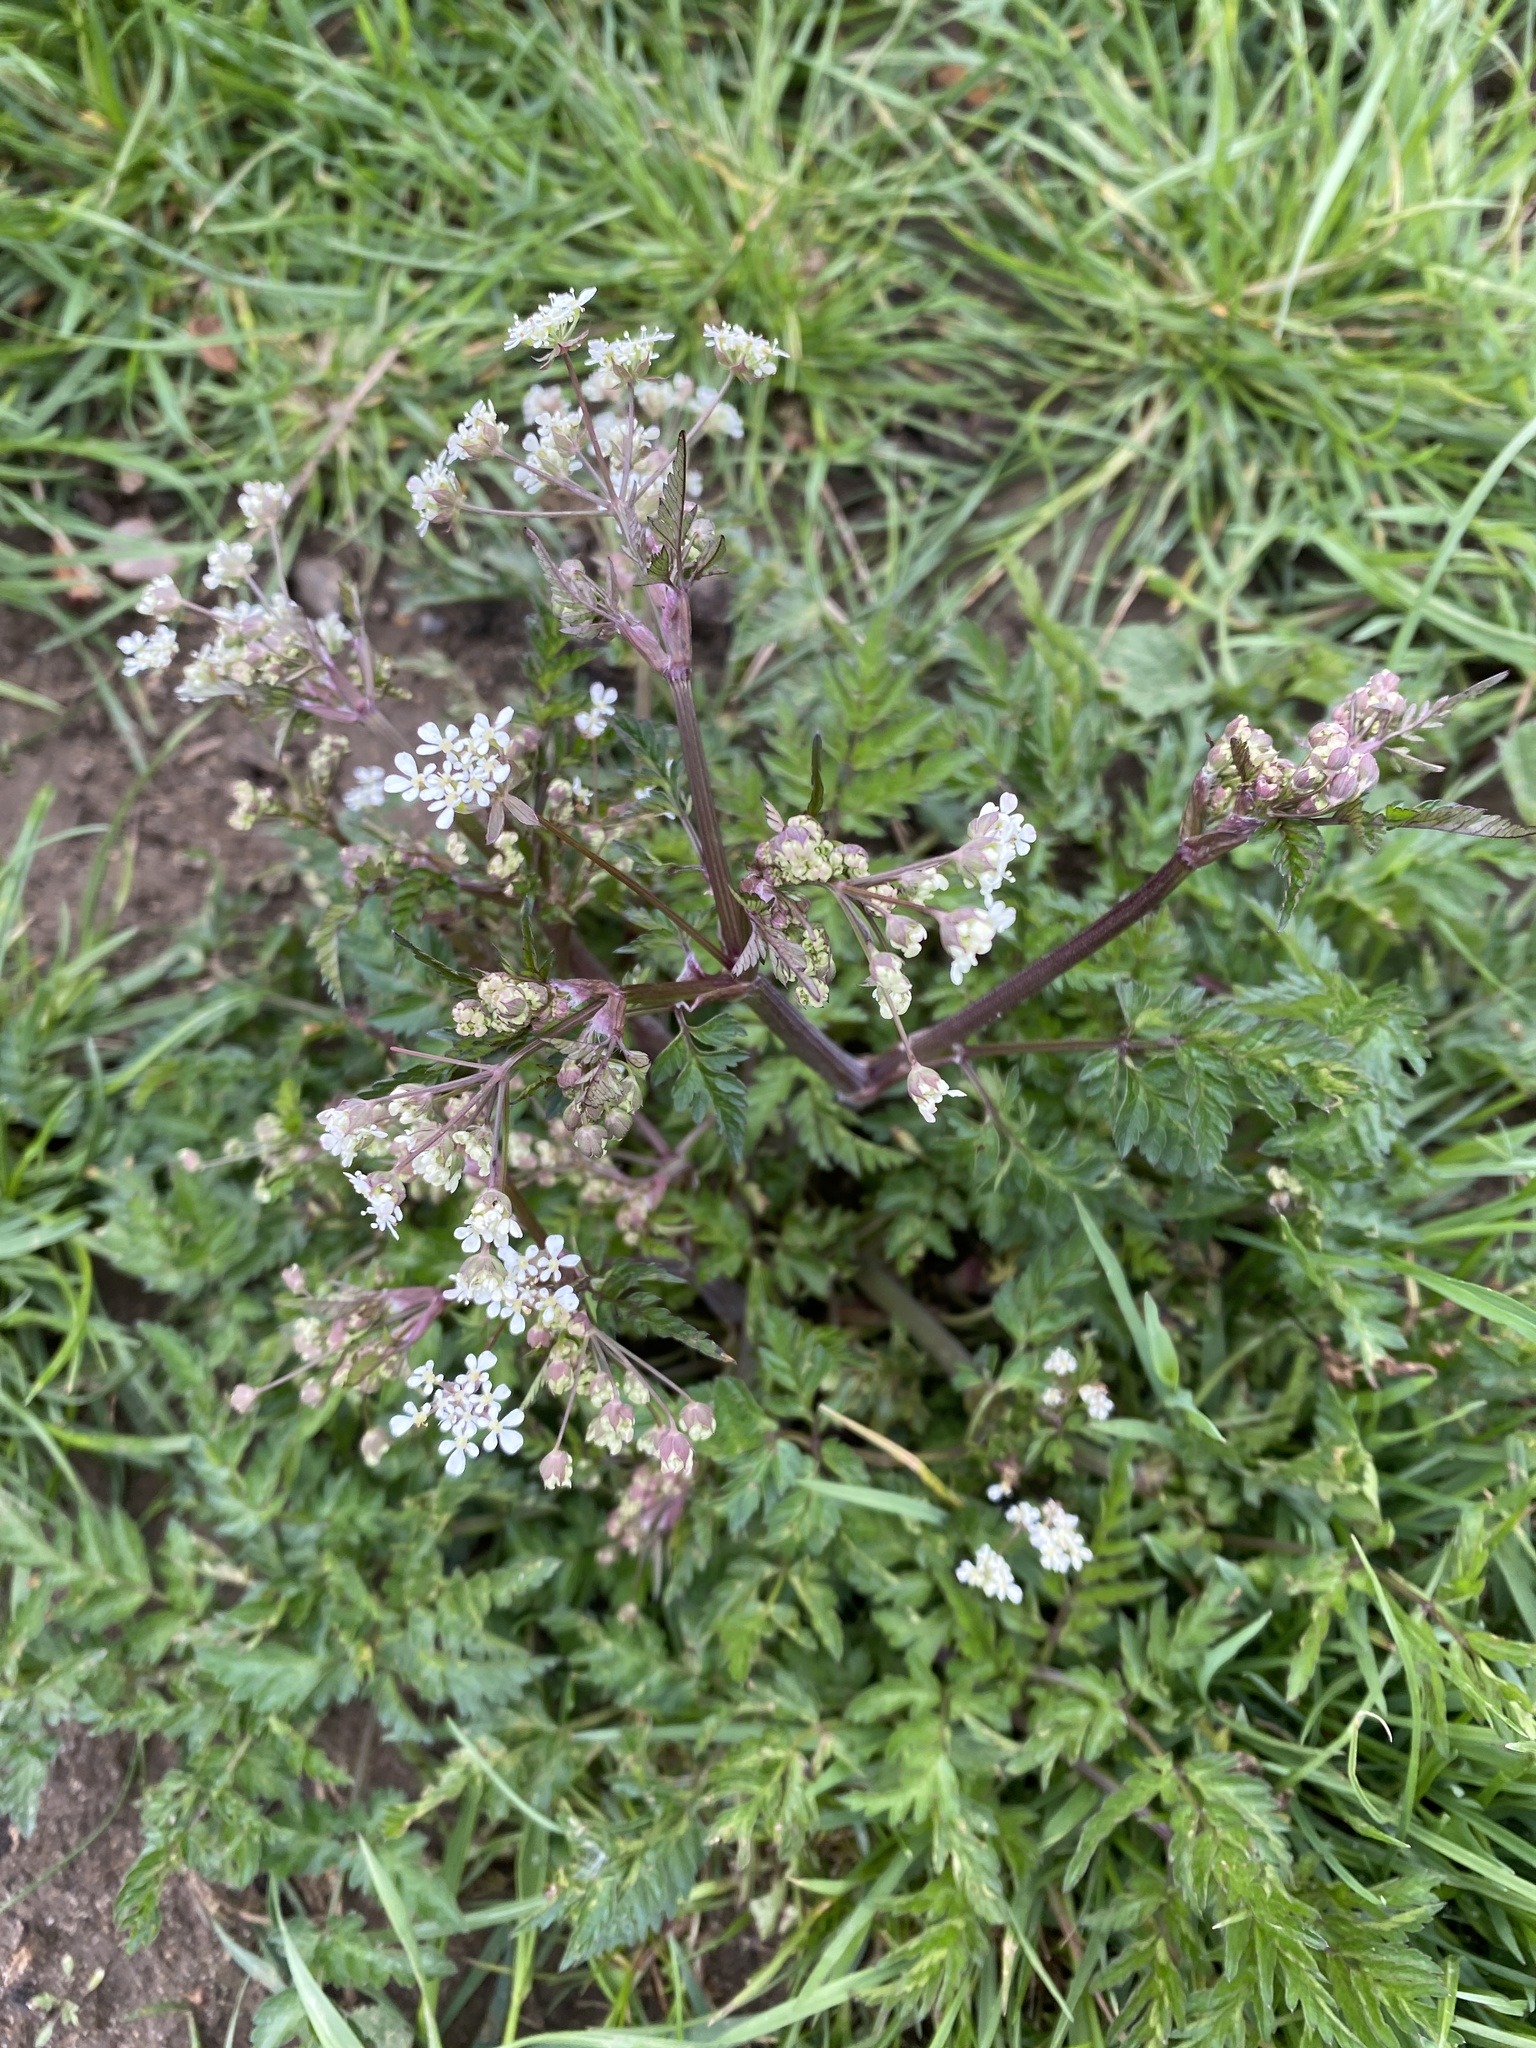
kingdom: Plantae
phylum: Tracheophyta
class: Magnoliopsida
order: Apiales
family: Apiaceae
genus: Anthriscus
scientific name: Anthriscus sylvestris
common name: Cow parsley
